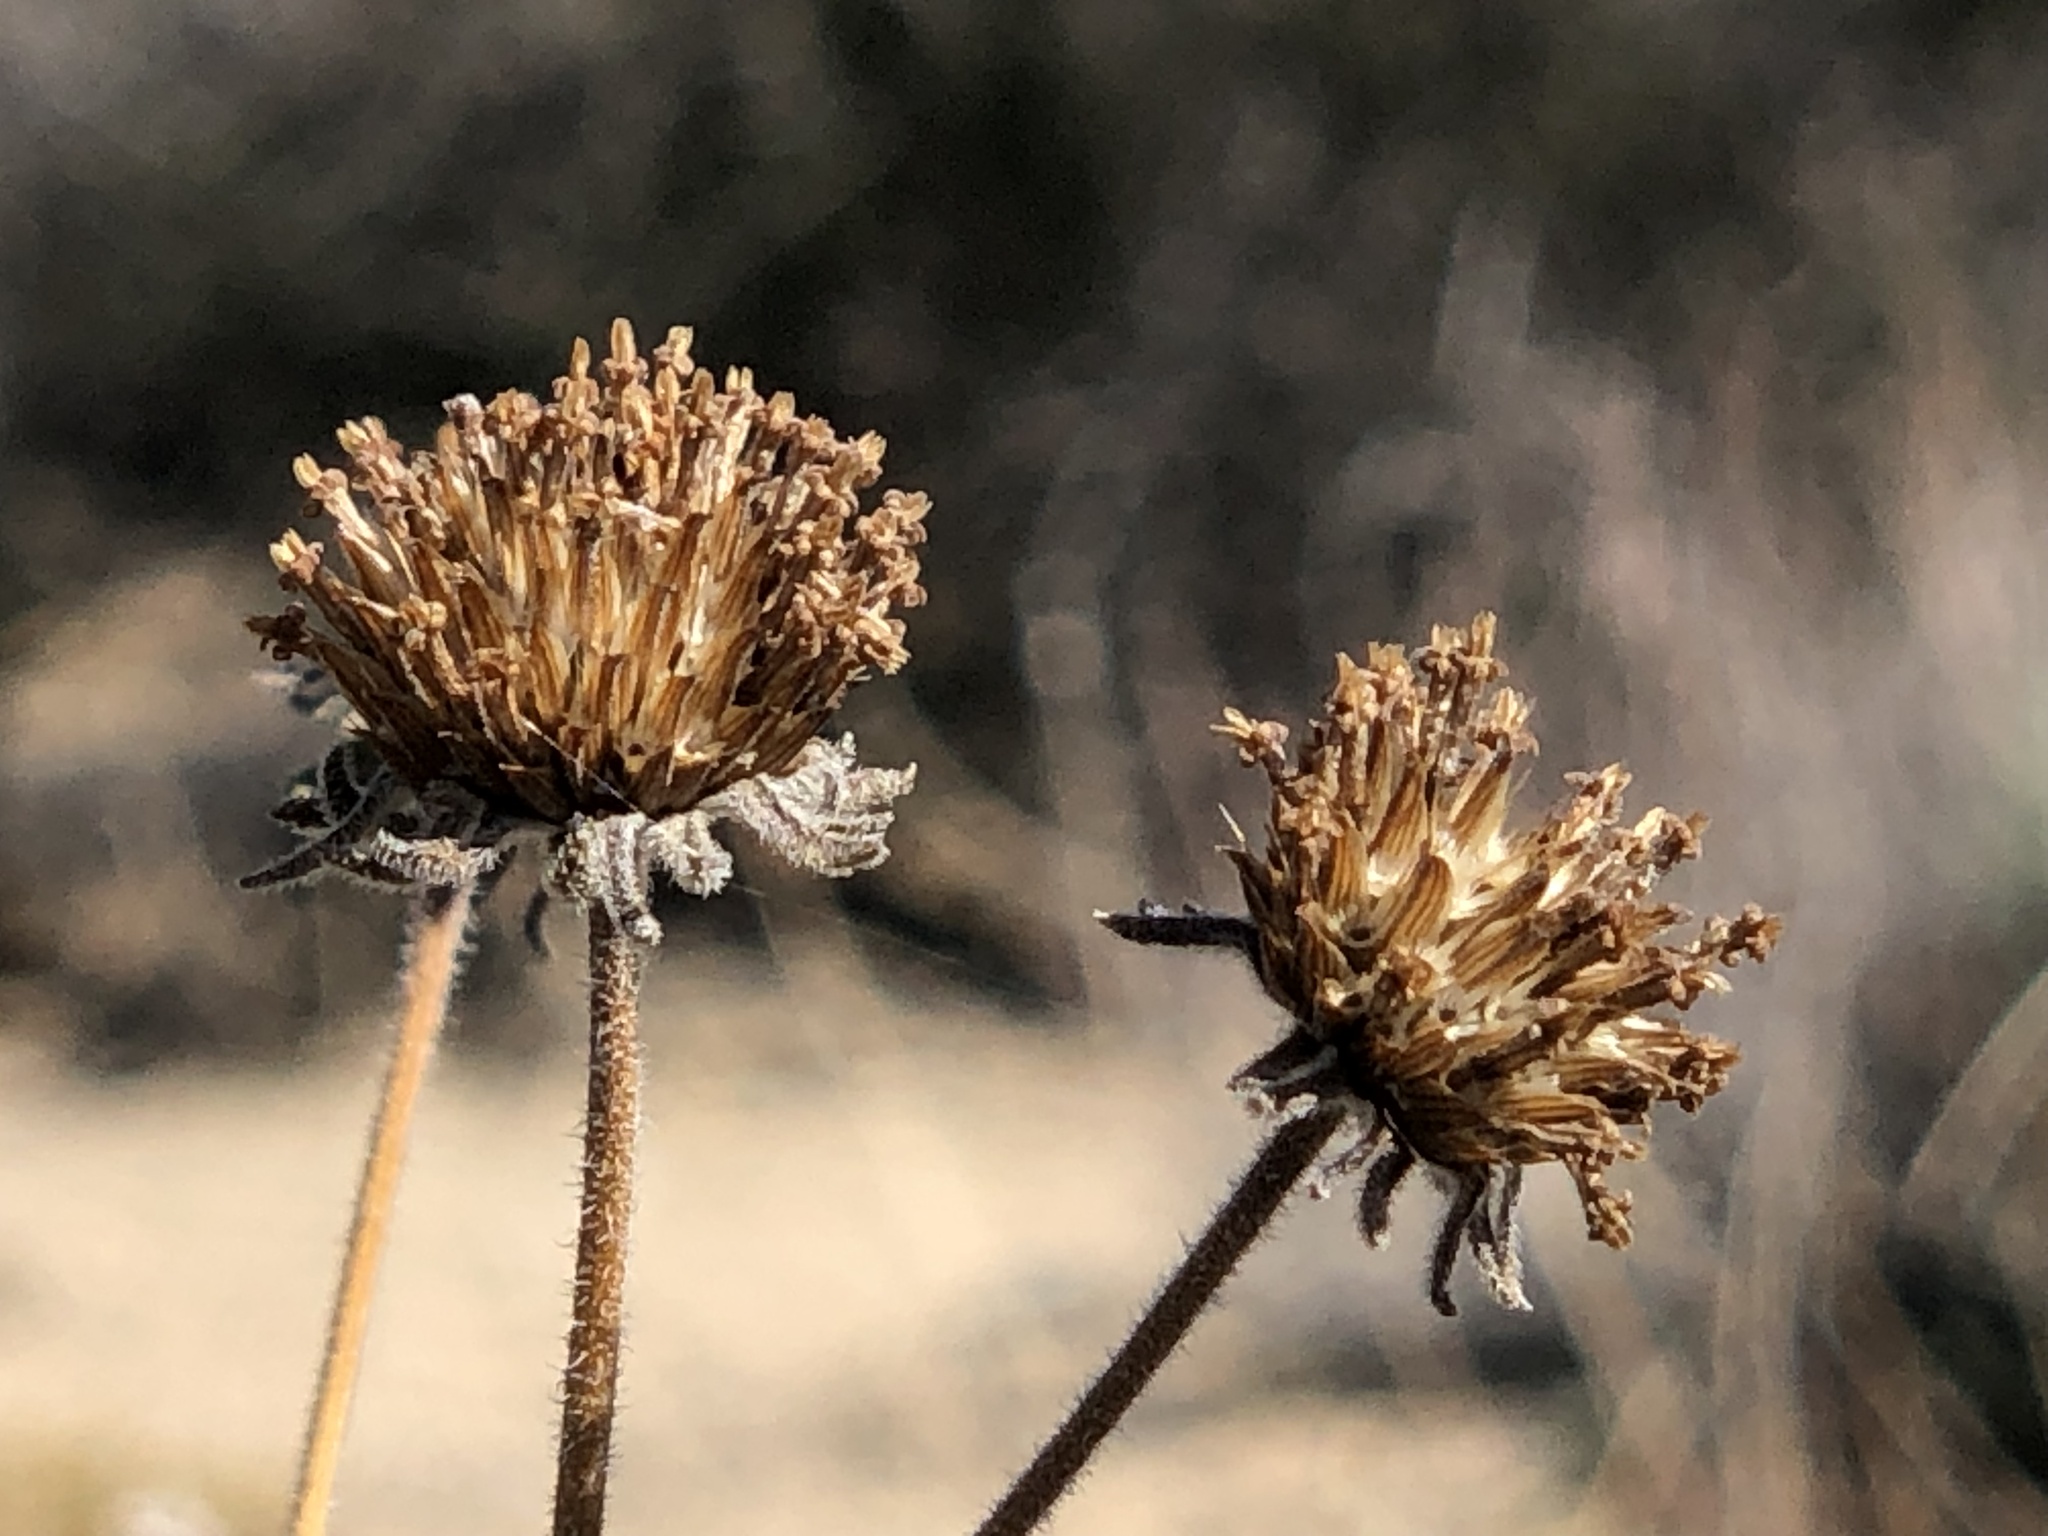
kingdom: Plantae
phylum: Tracheophyta
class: Magnoliopsida
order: Asterales
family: Asteraceae
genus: Bahiopsis
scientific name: Bahiopsis parishii
